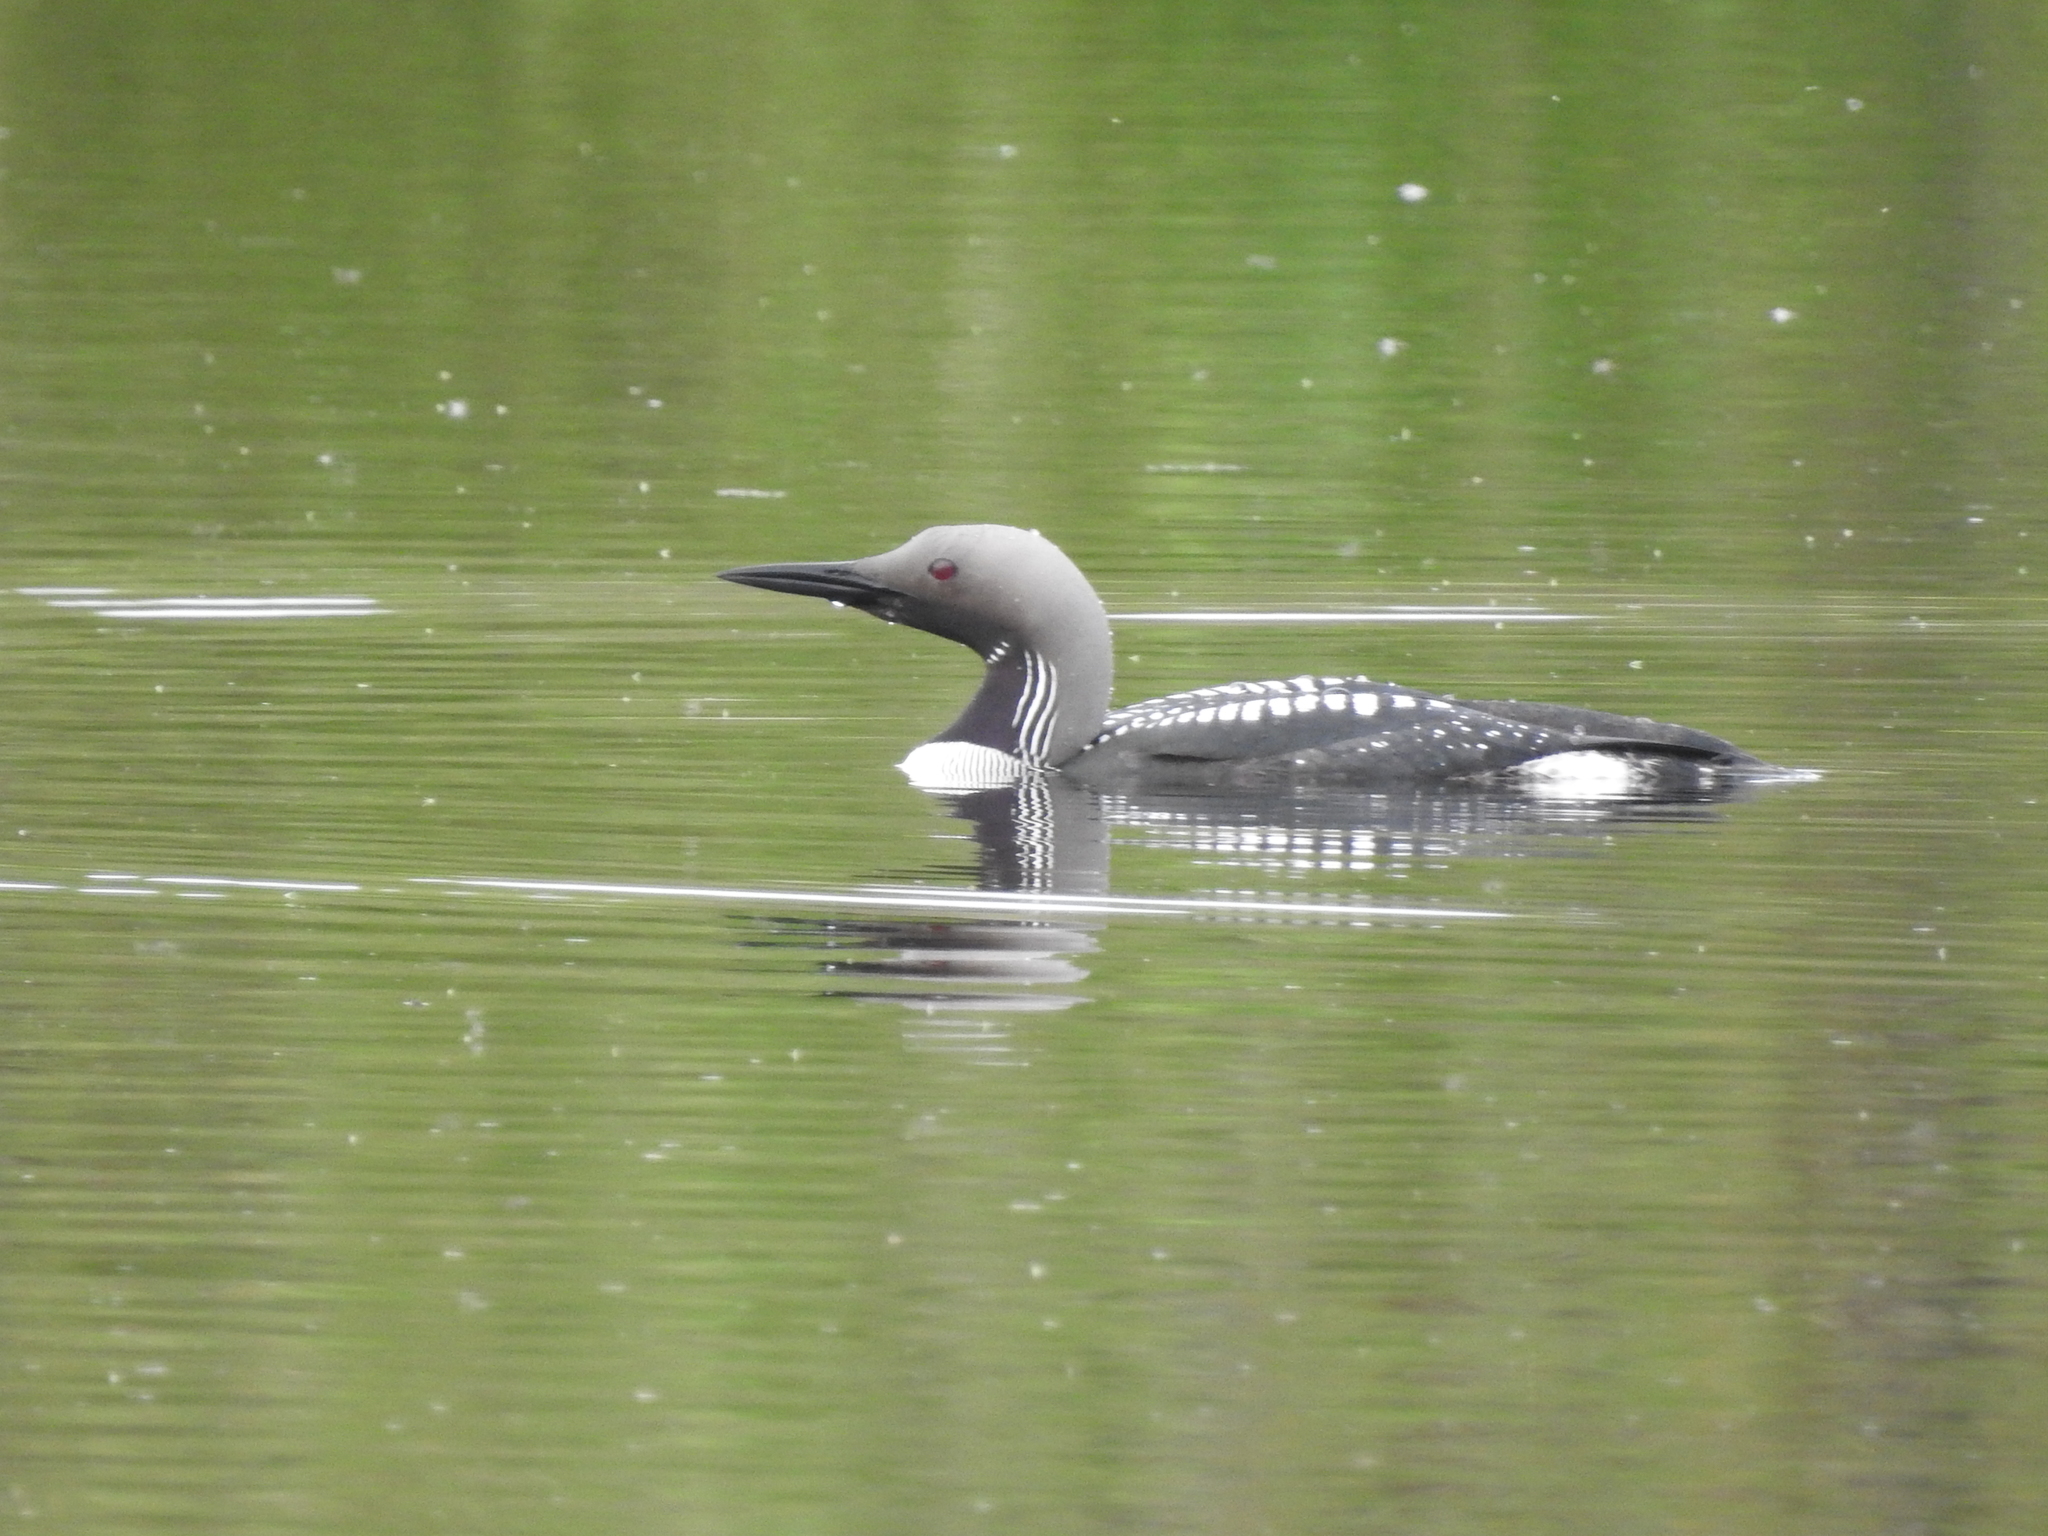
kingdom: Animalia
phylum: Chordata
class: Aves
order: Gaviiformes
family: Gaviidae
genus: Gavia
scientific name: Gavia arctica
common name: Black-throated loon
